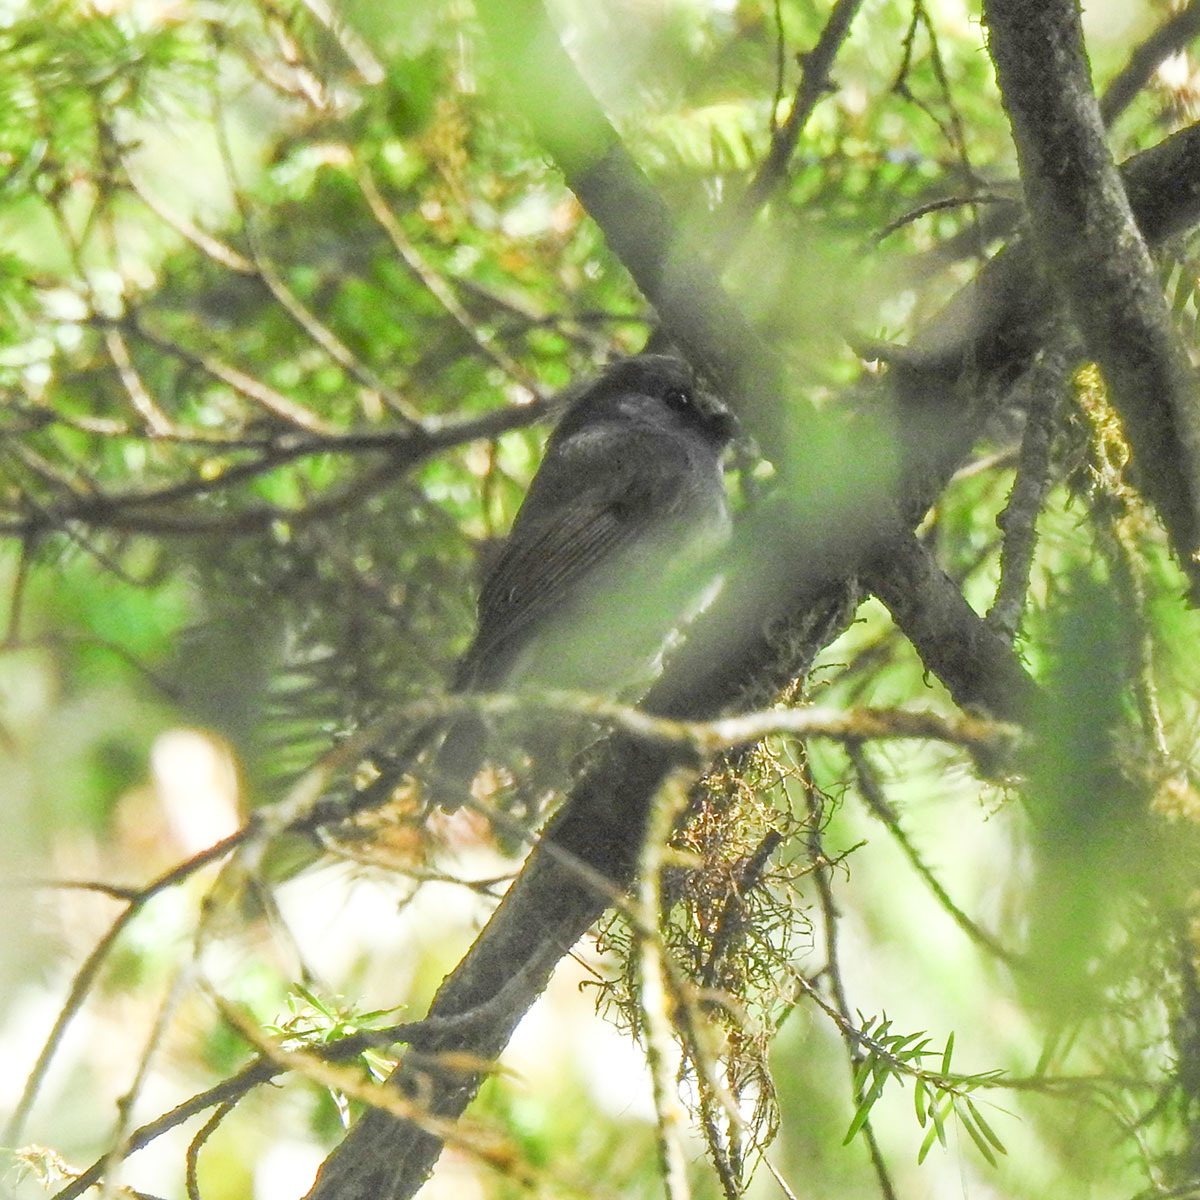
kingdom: Animalia
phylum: Chordata
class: Aves
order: Passeriformes
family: Muscicapidae
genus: Ficedula
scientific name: Ficedula strophiata
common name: Rufous-gorgeted flycatcher
